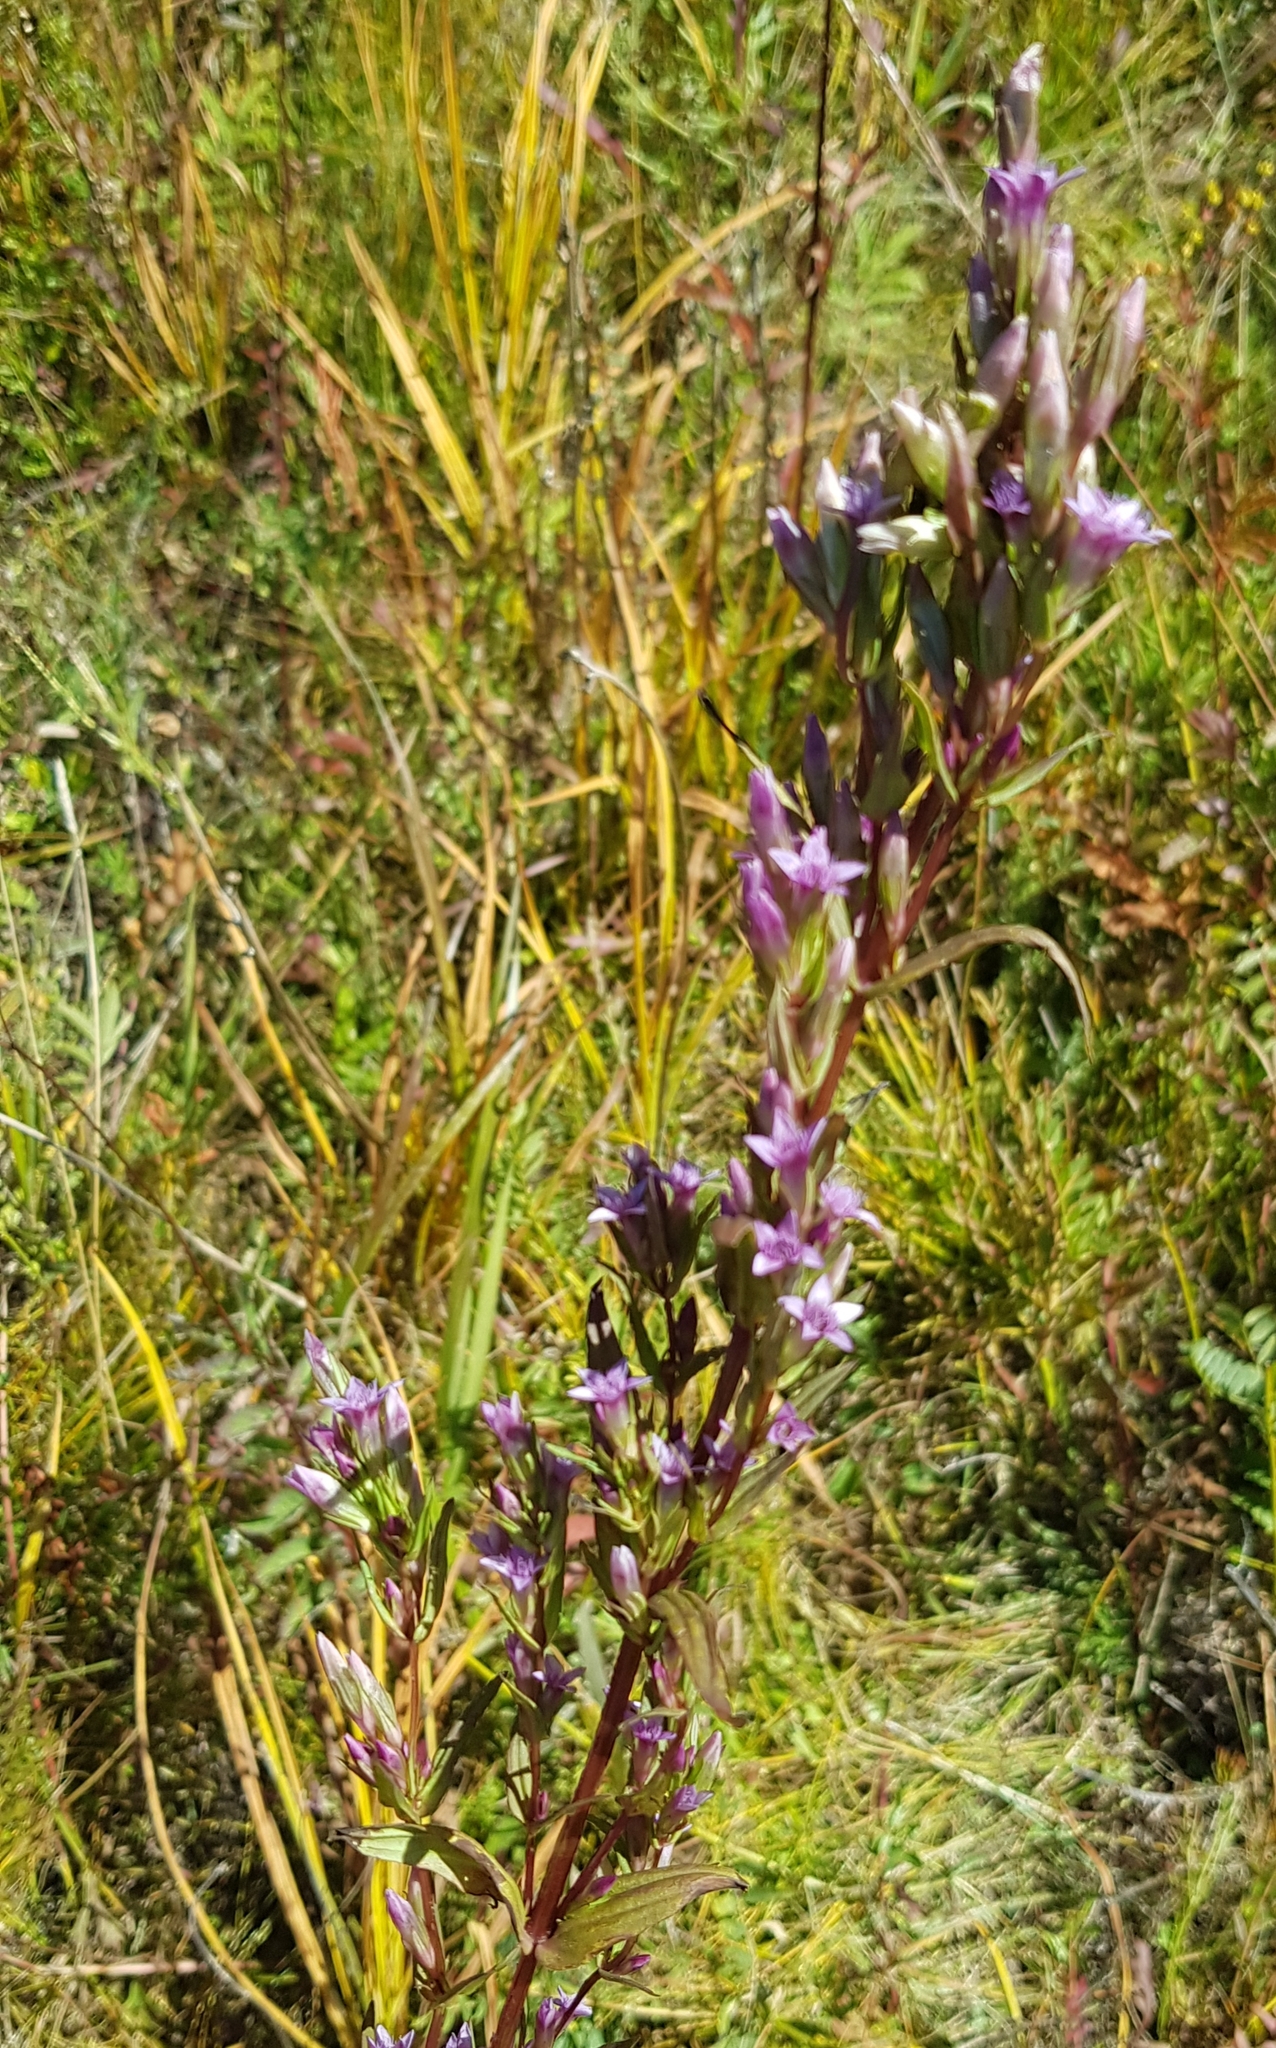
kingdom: Plantae
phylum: Tracheophyta
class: Magnoliopsida
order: Gentianales
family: Gentianaceae
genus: Gentianella
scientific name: Gentianella amarella
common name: Autumn gentian
